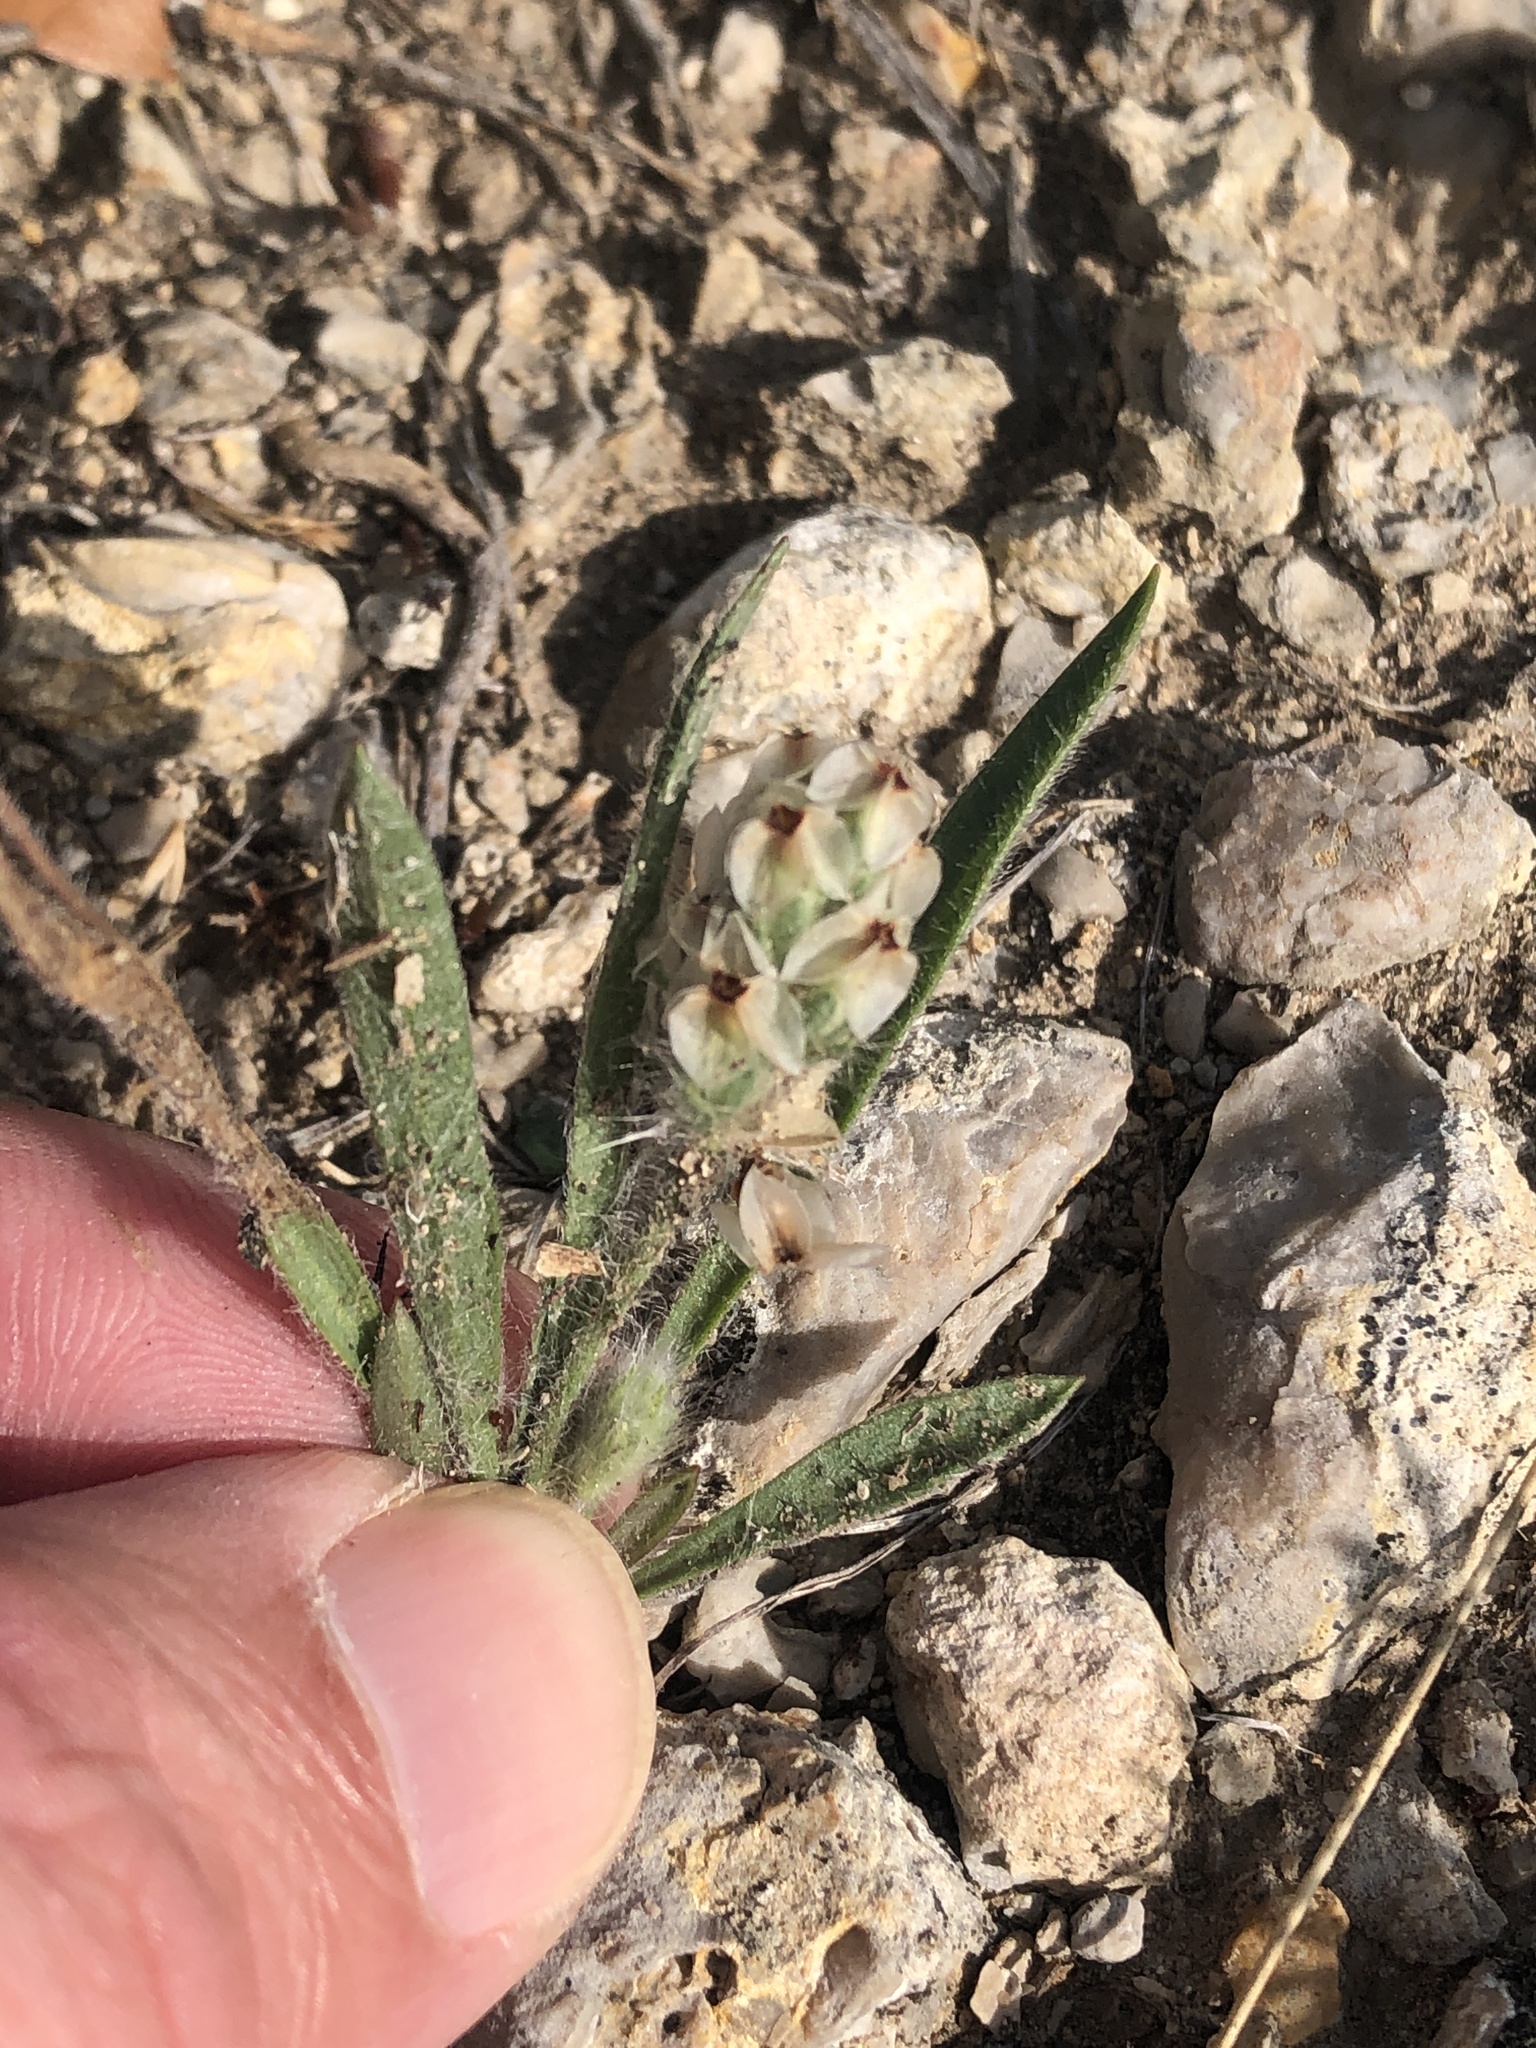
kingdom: Plantae
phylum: Tracheophyta
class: Magnoliopsida
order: Lamiales
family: Plantaginaceae
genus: Plantago
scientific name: Plantago helleri
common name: Heller's plantain
